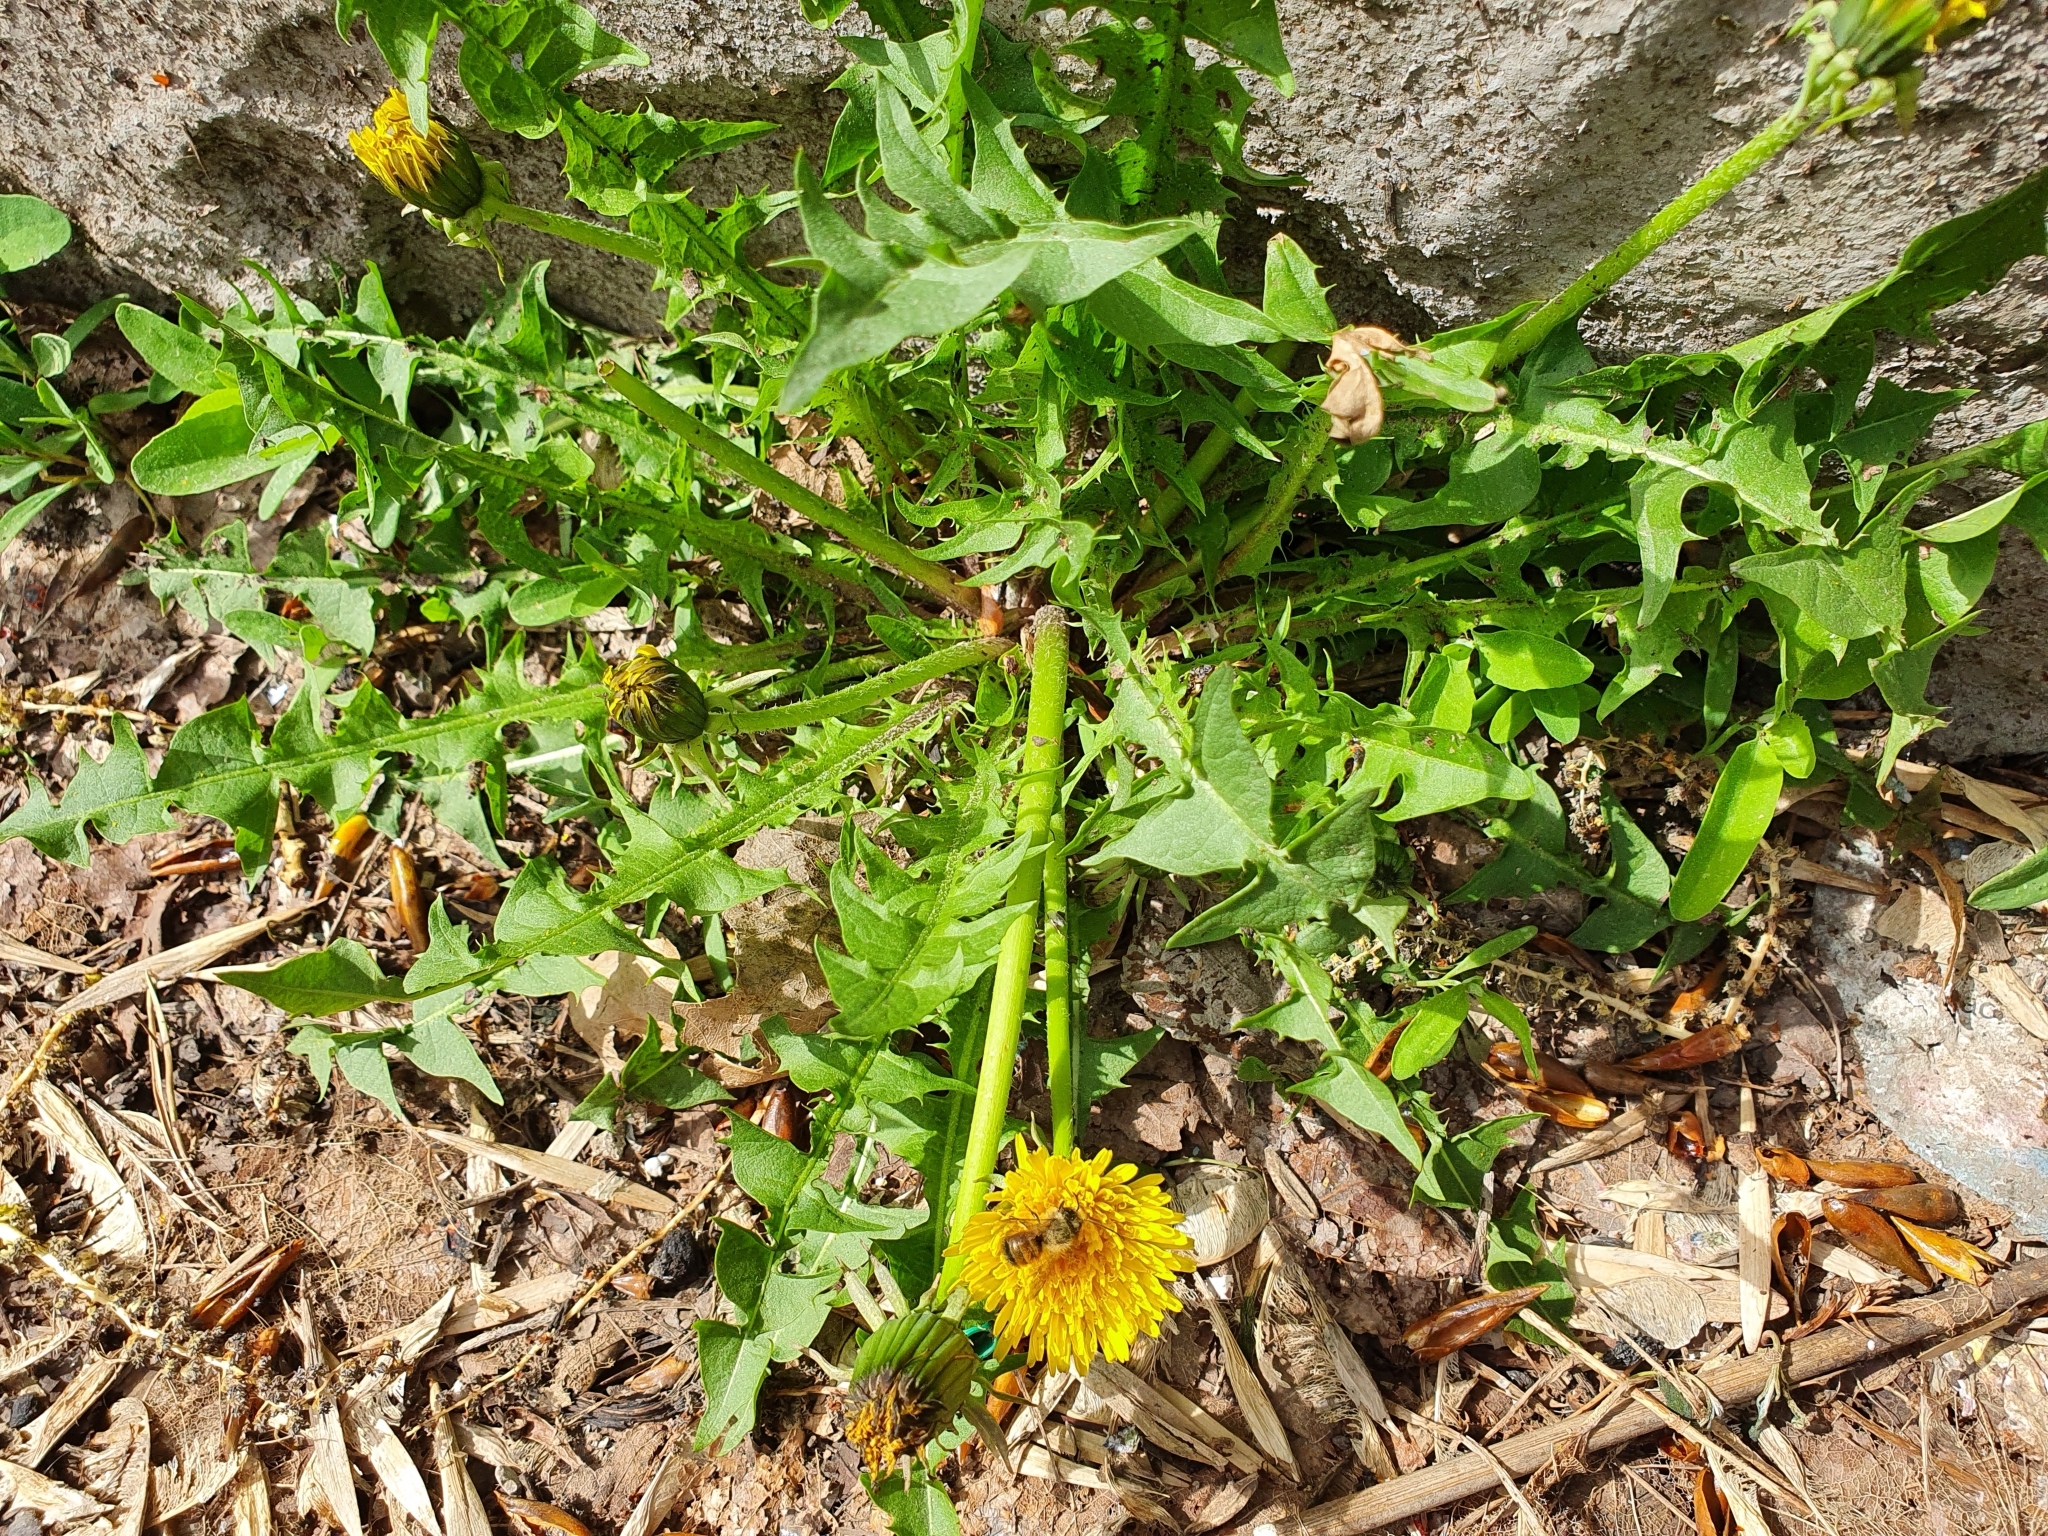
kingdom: Plantae
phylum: Tracheophyta
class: Magnoliopsida
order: Asterales
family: Asteraceae
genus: Taraxacum
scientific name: Taraxacum officinale
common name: Common dandelion
